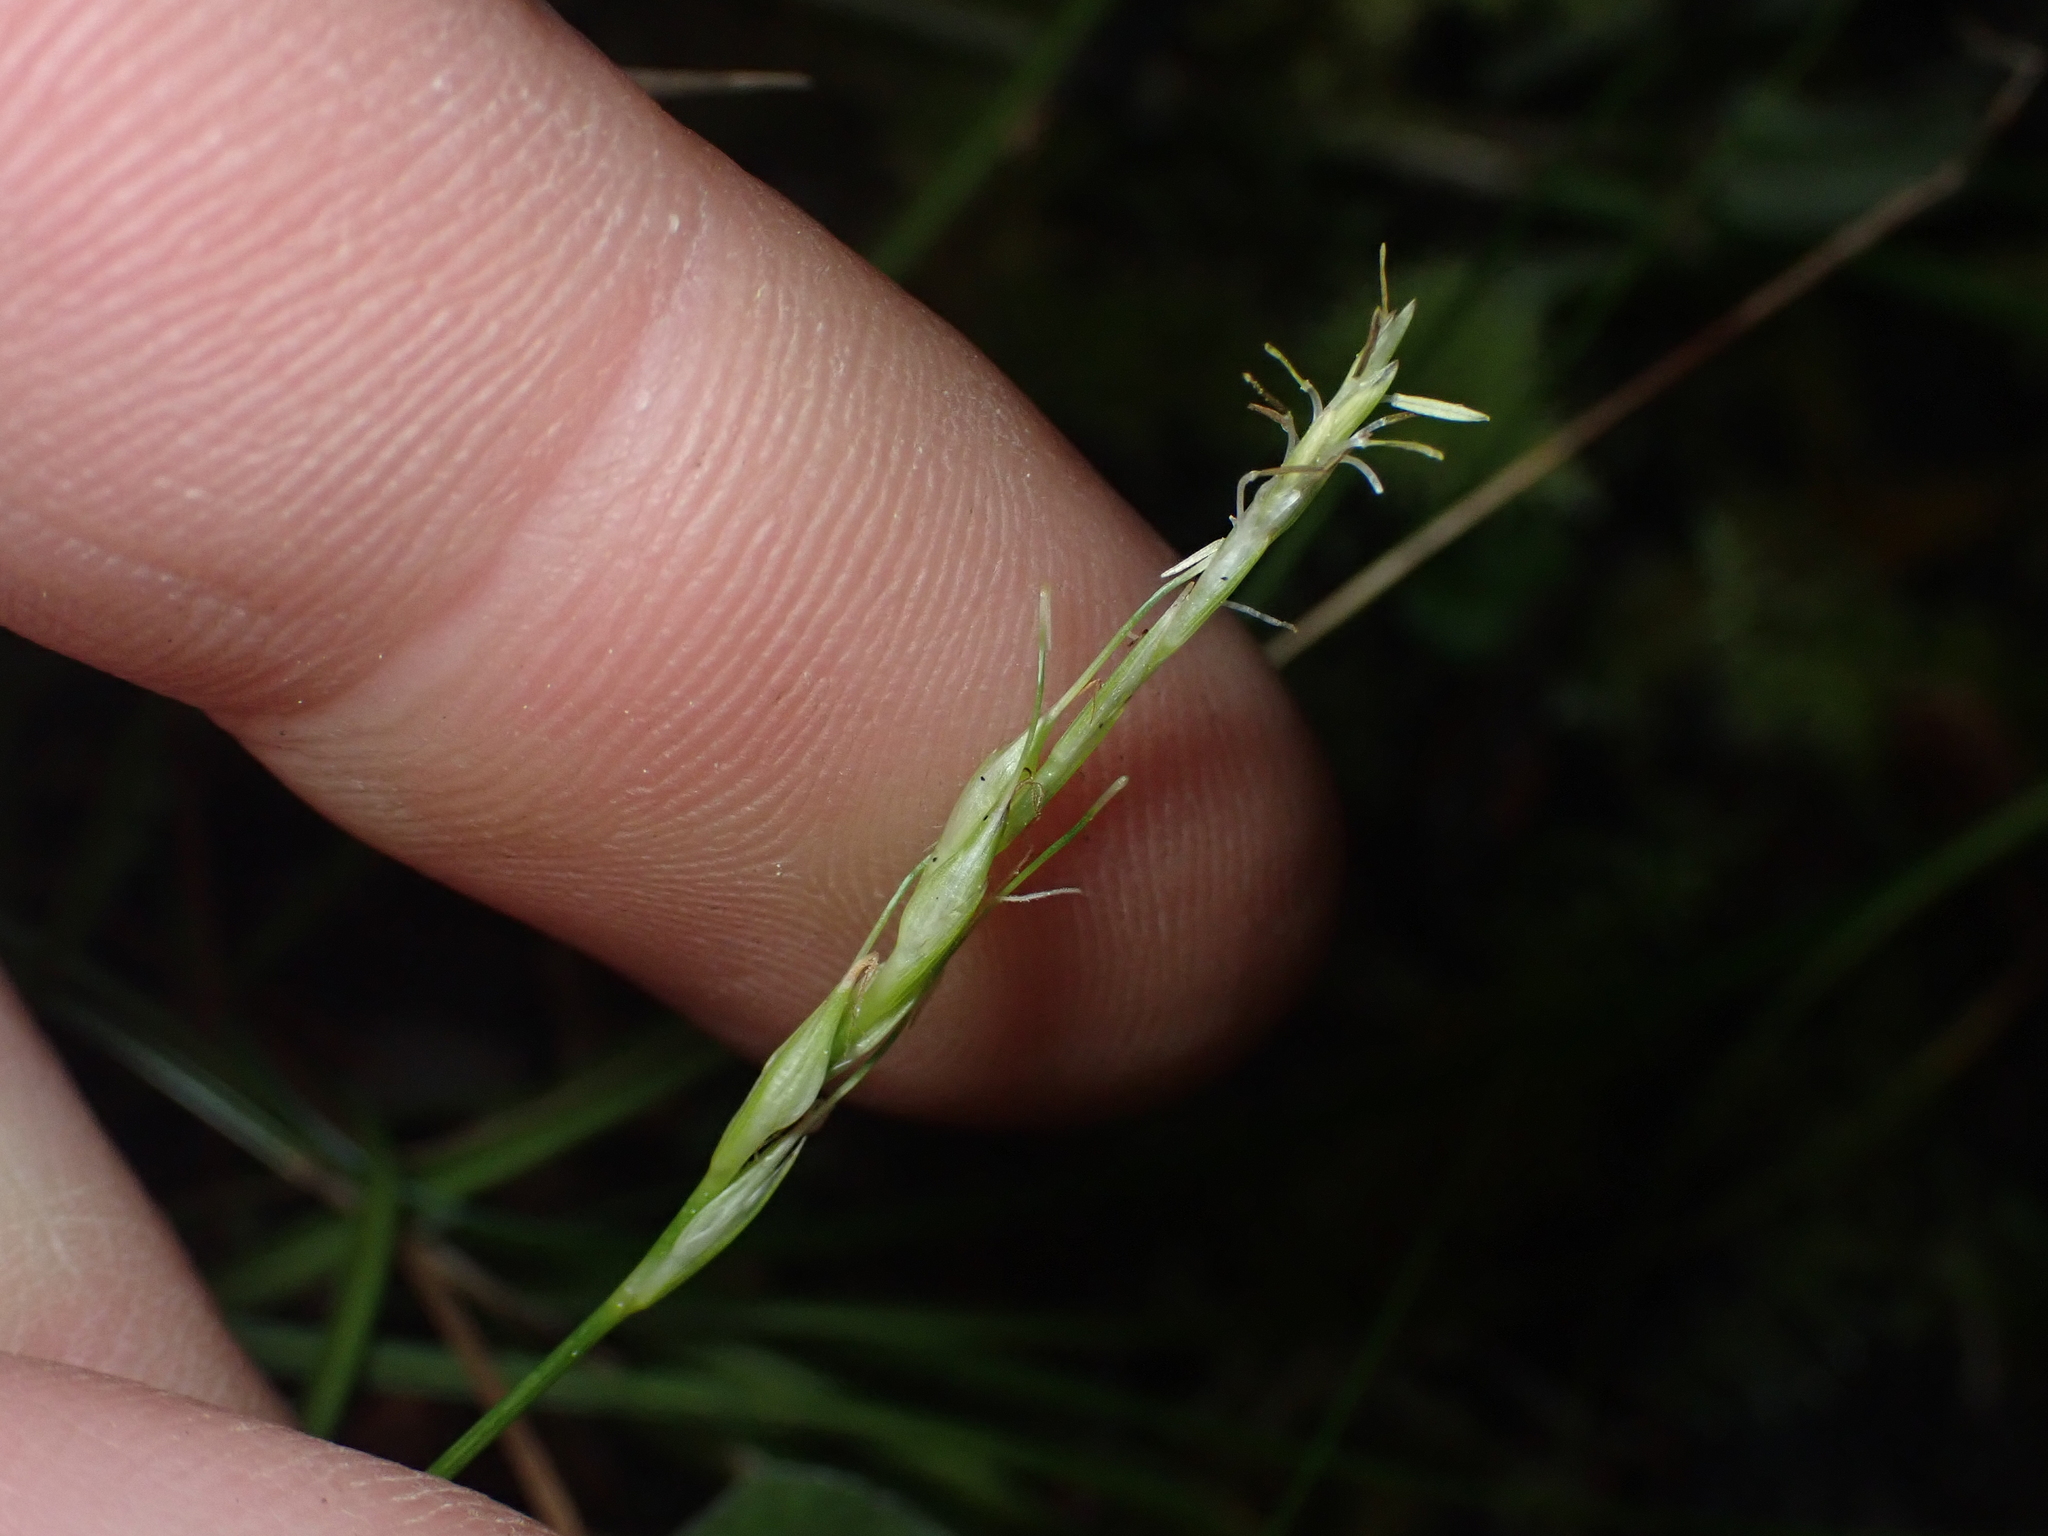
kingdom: Plantae
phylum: Tracheophyta
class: Liliopsida
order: Poales
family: Cyperaceae
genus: Carex
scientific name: Carex horizontalis
